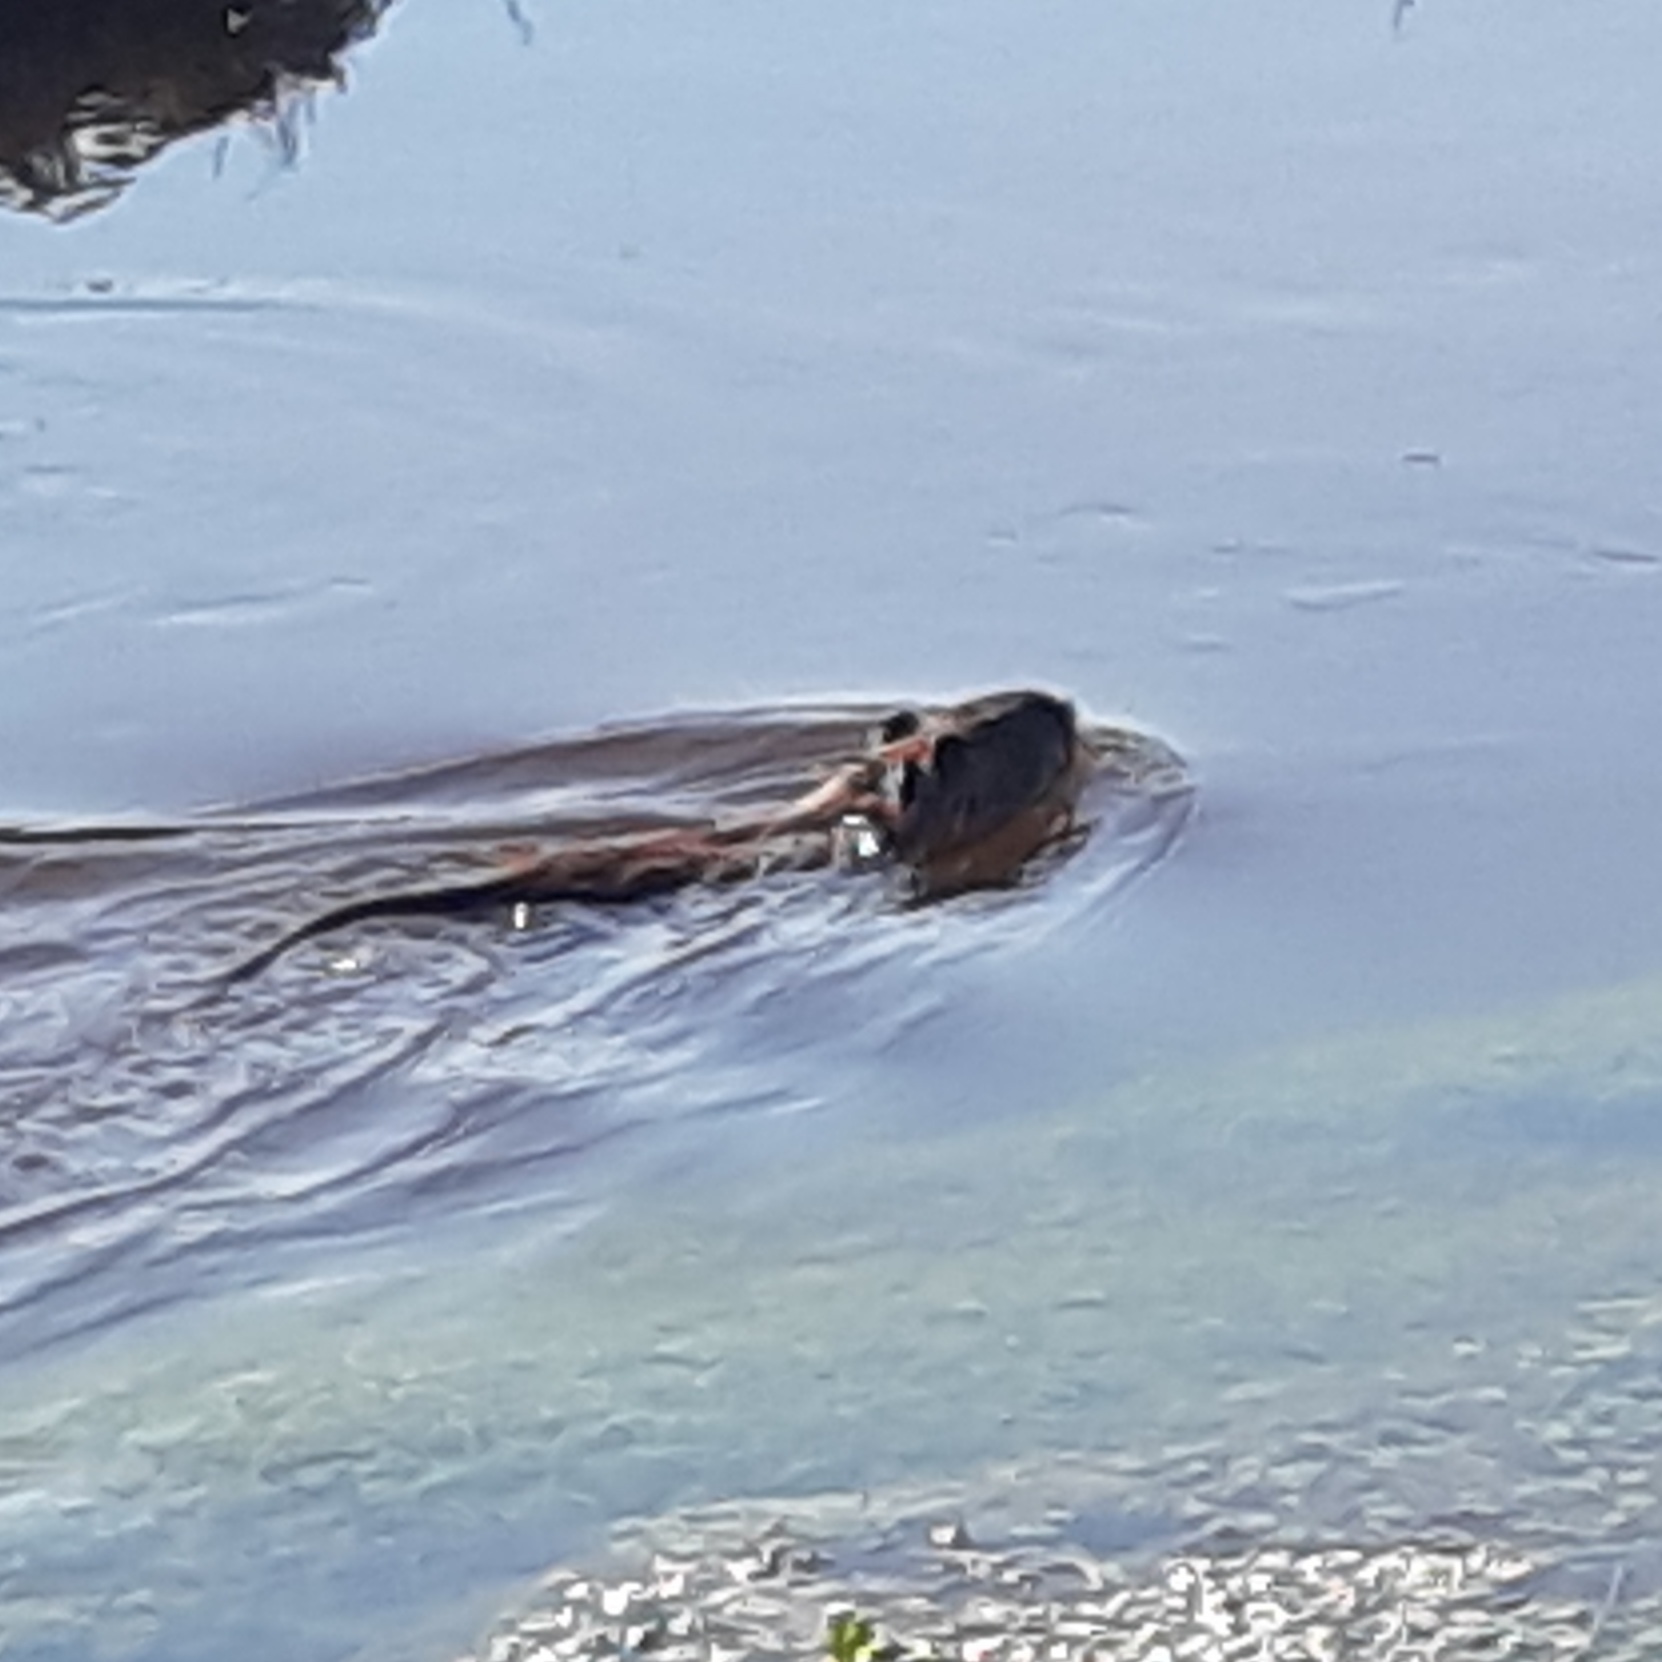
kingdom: Animalia
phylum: Chordata
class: Mammalia
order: Rodentia
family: Myocastoridae
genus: Myocastor
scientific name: Myocastor coypus
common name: Coypu
